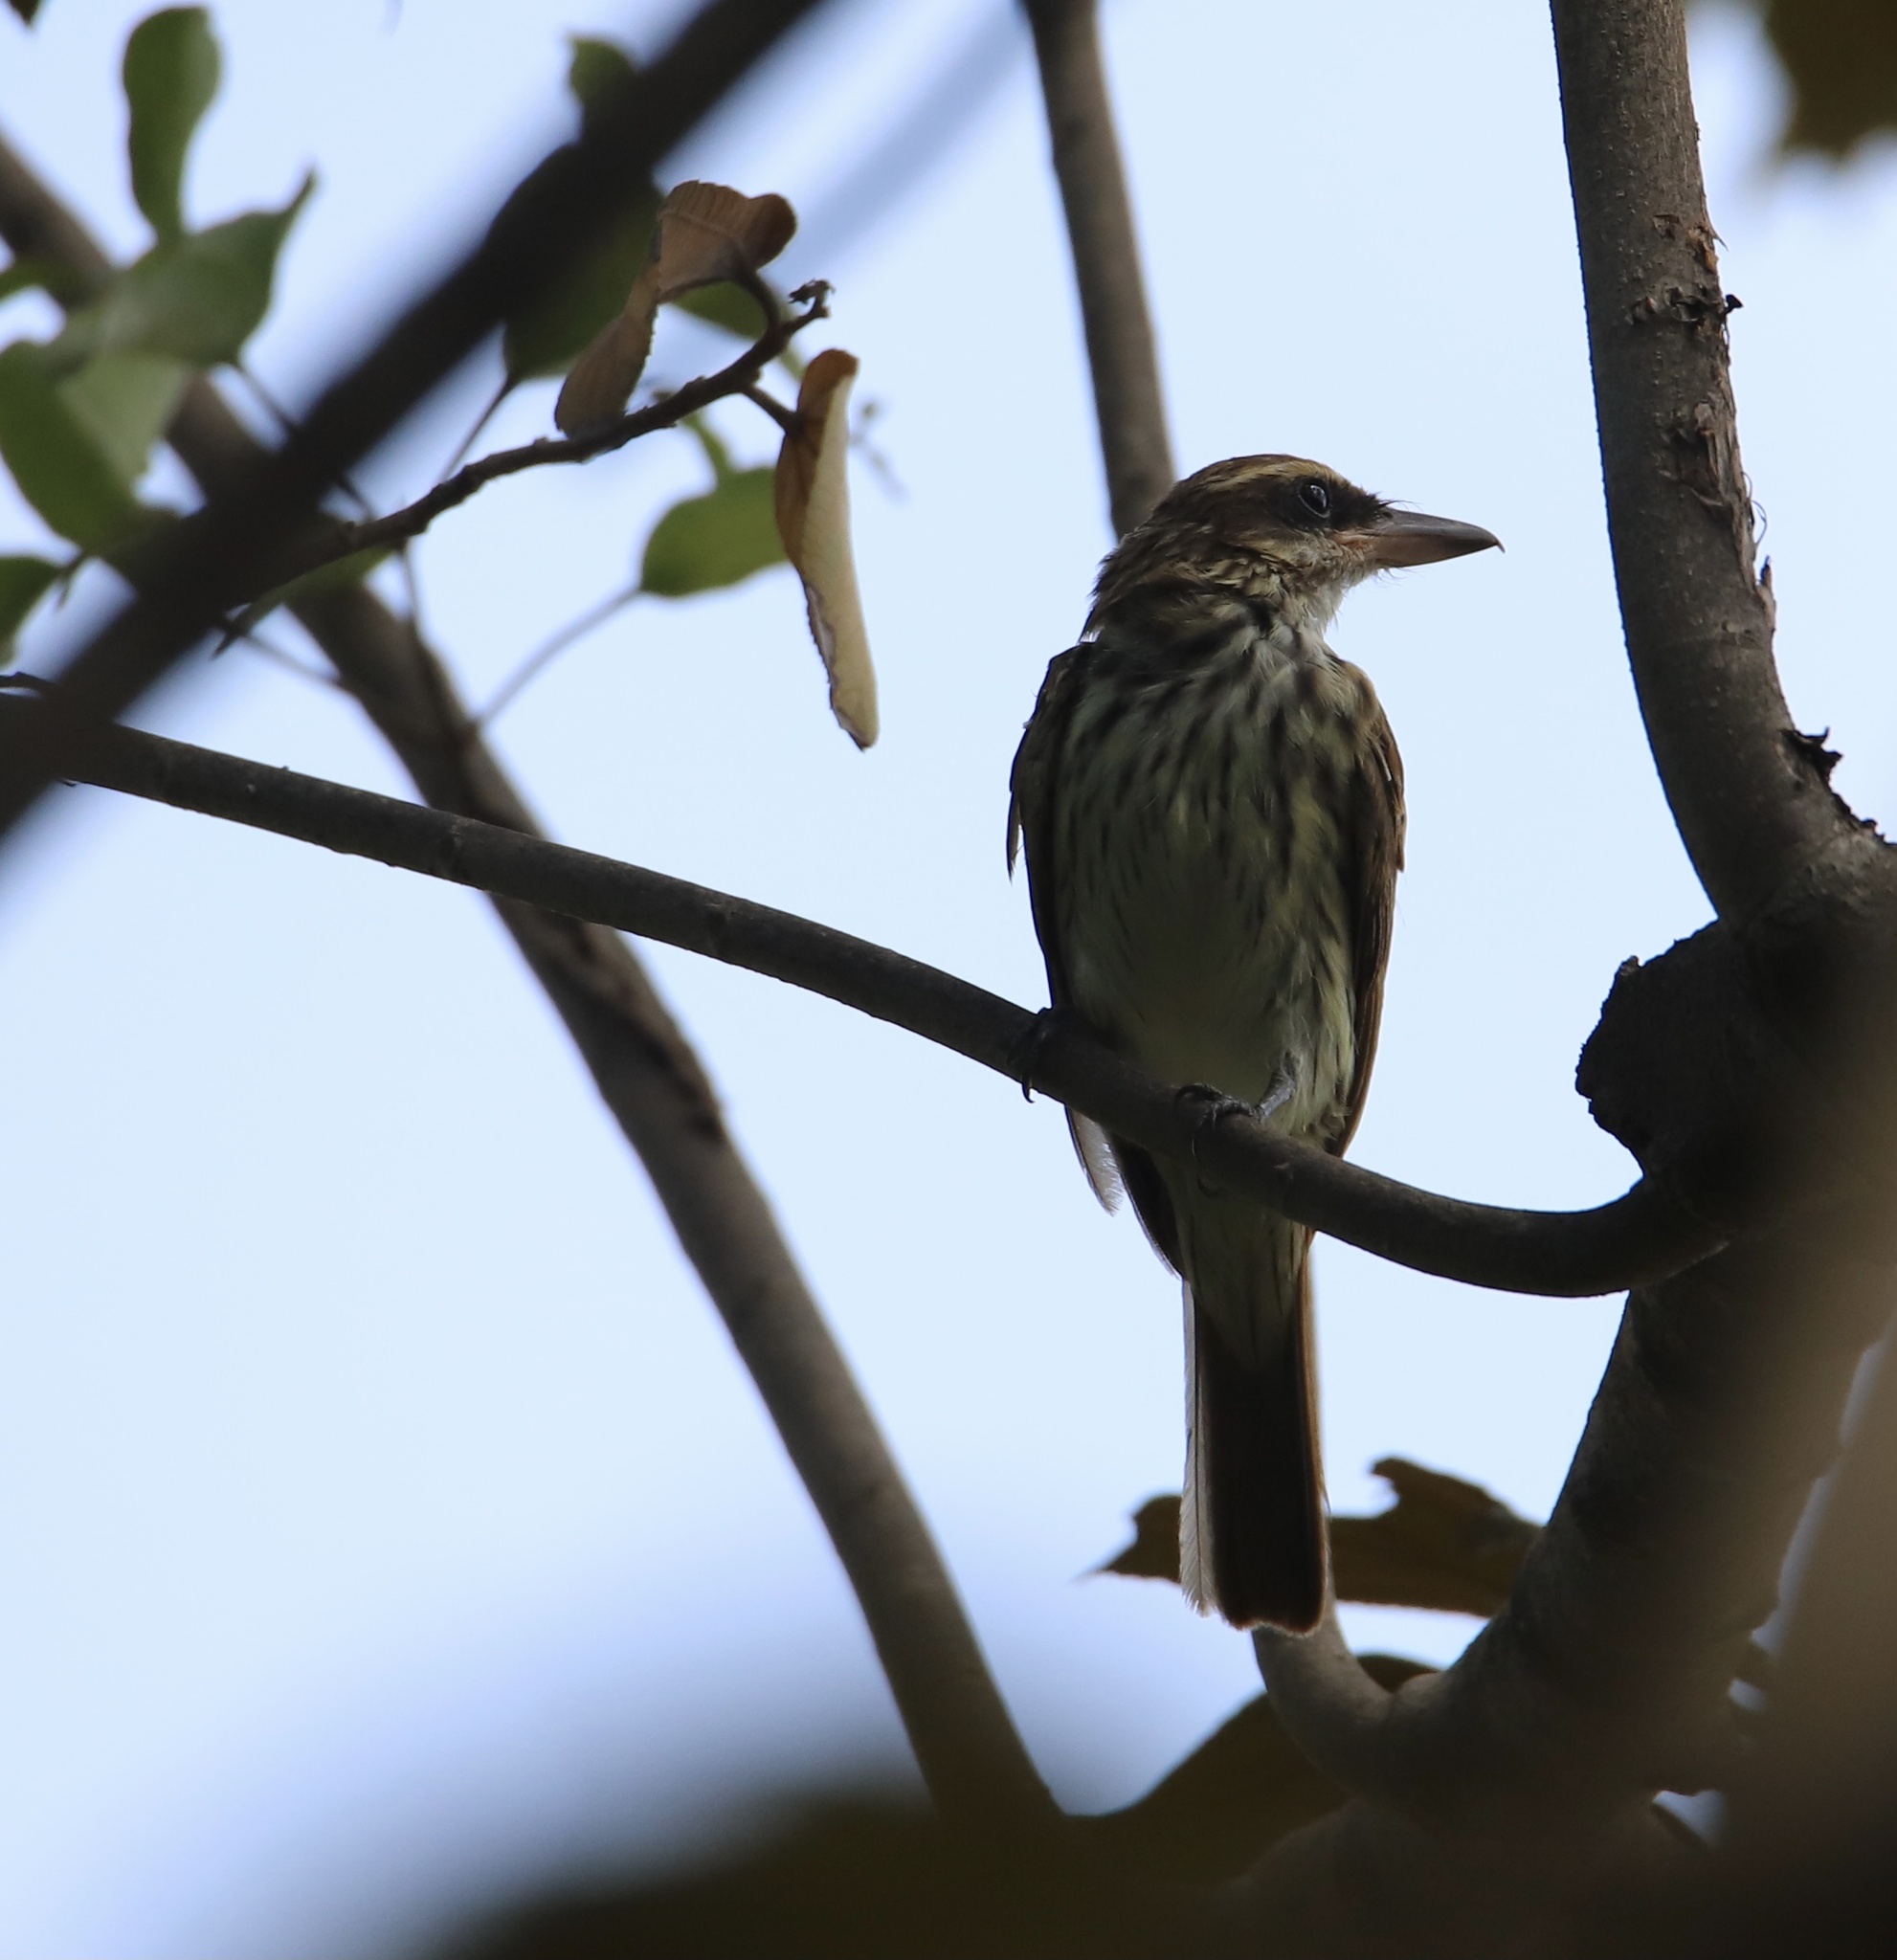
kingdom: Animalia
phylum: Chordata
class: Aves
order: Passeriformes
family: Tyrannidae
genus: Myiodynastes
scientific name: Myiodynastes maculatus
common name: Streaked flycatcher
